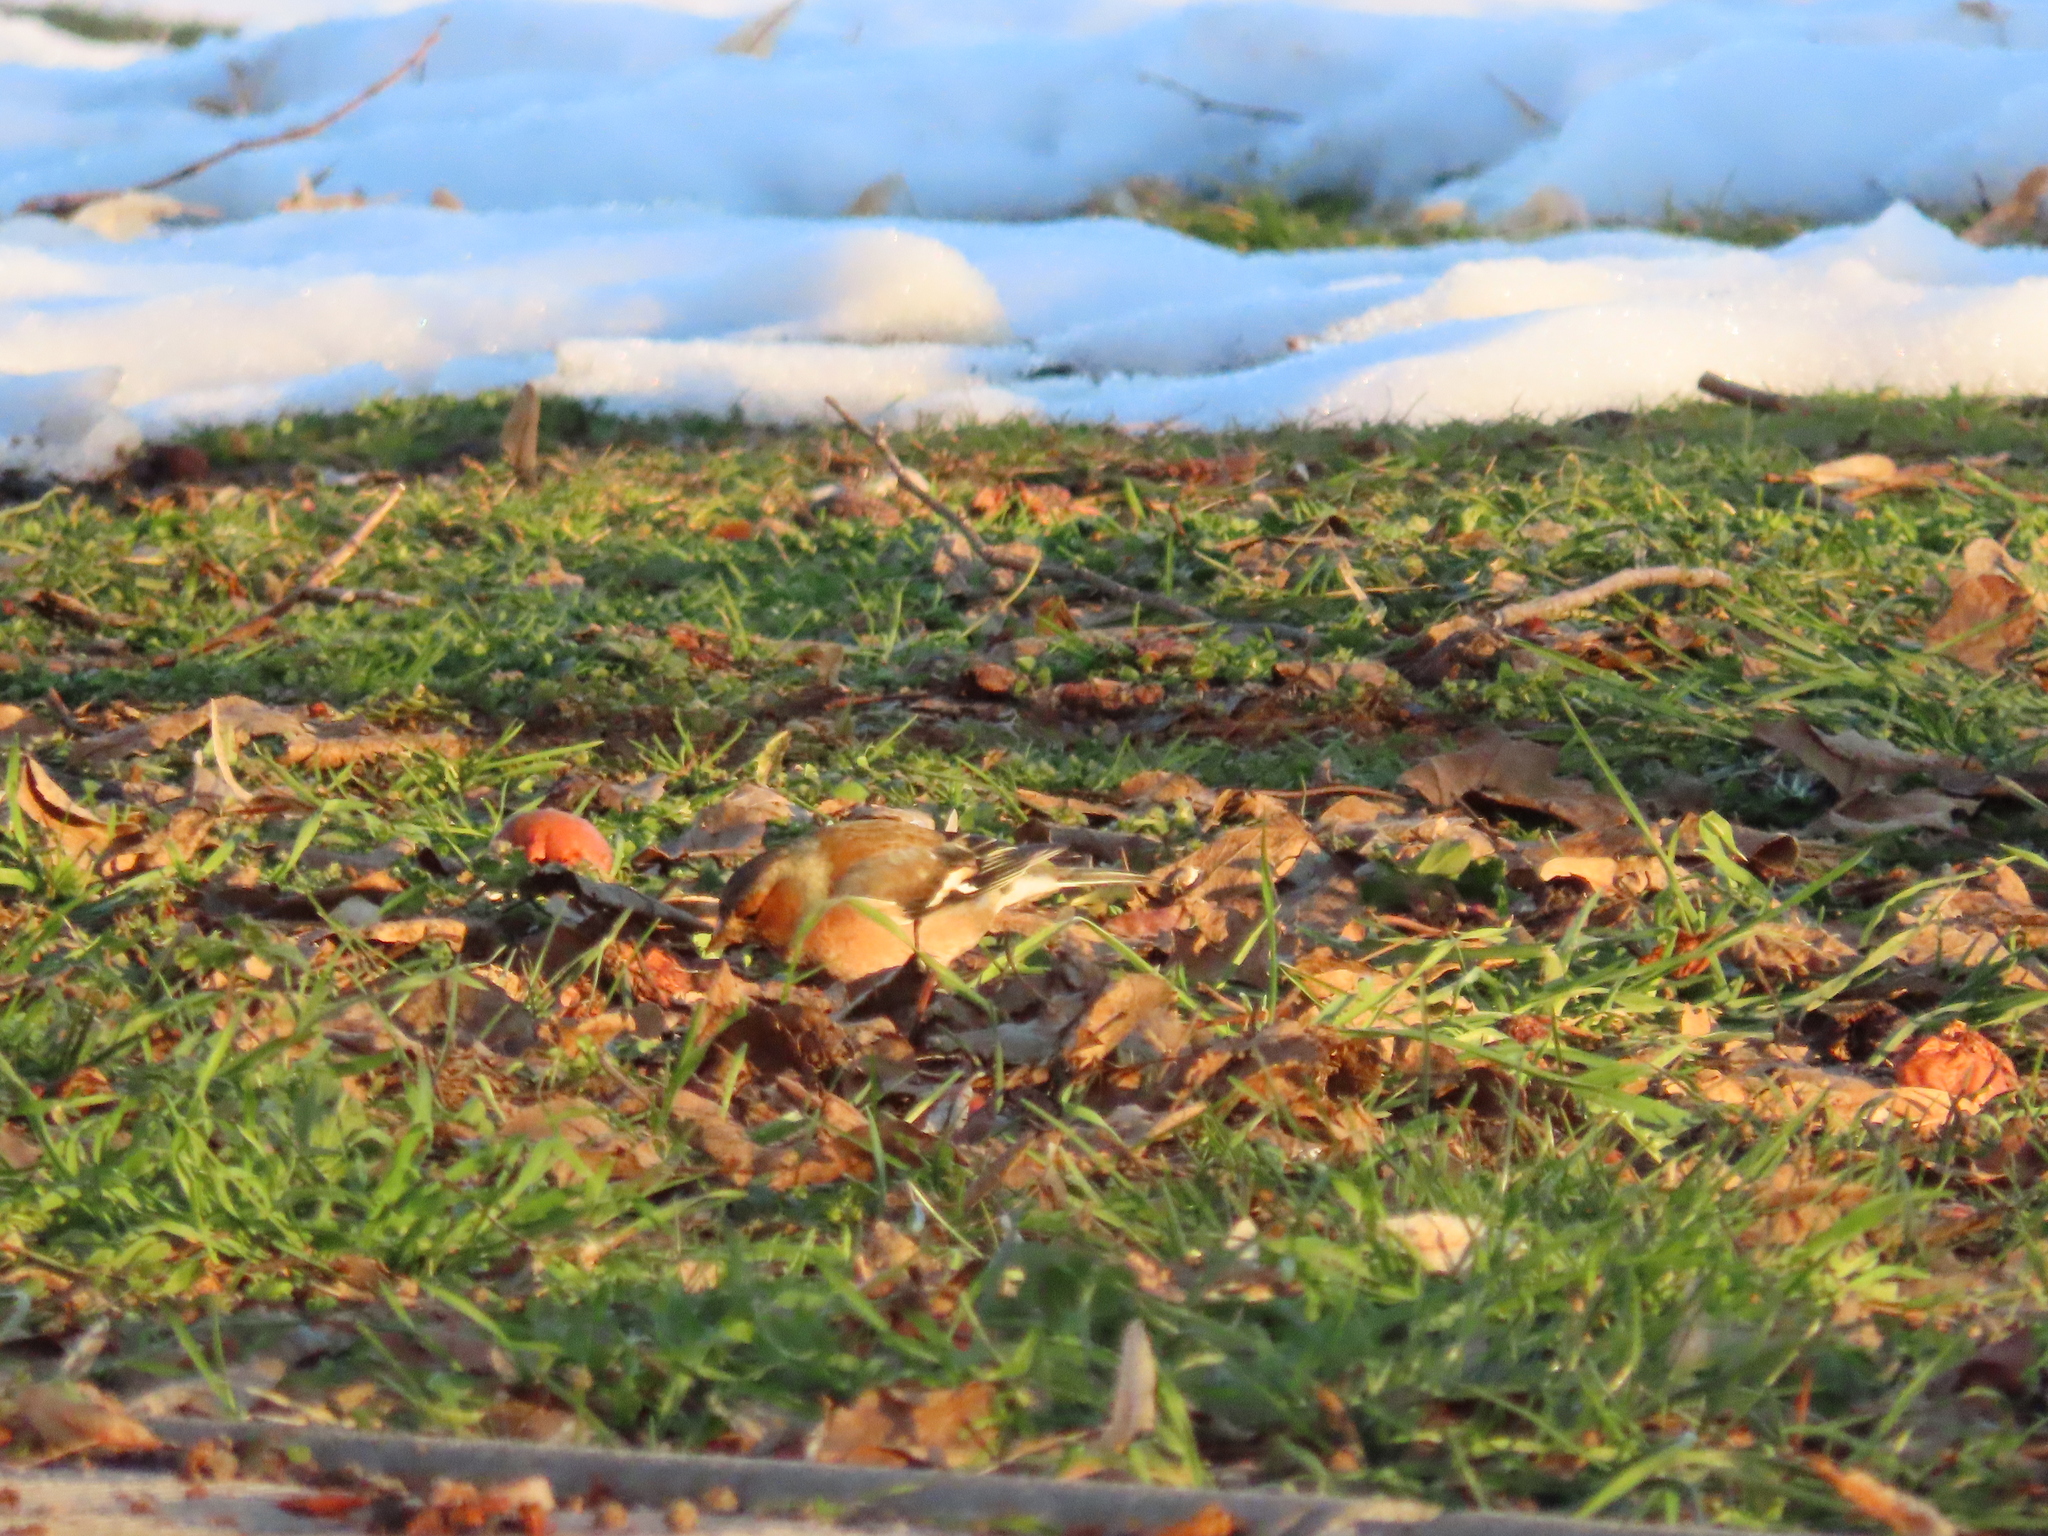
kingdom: Animalia
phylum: Chordata
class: Aves
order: Passeriformes
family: Fringillidae
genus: Fringilla
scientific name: Fringilla coelebs
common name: Common chaffinch
